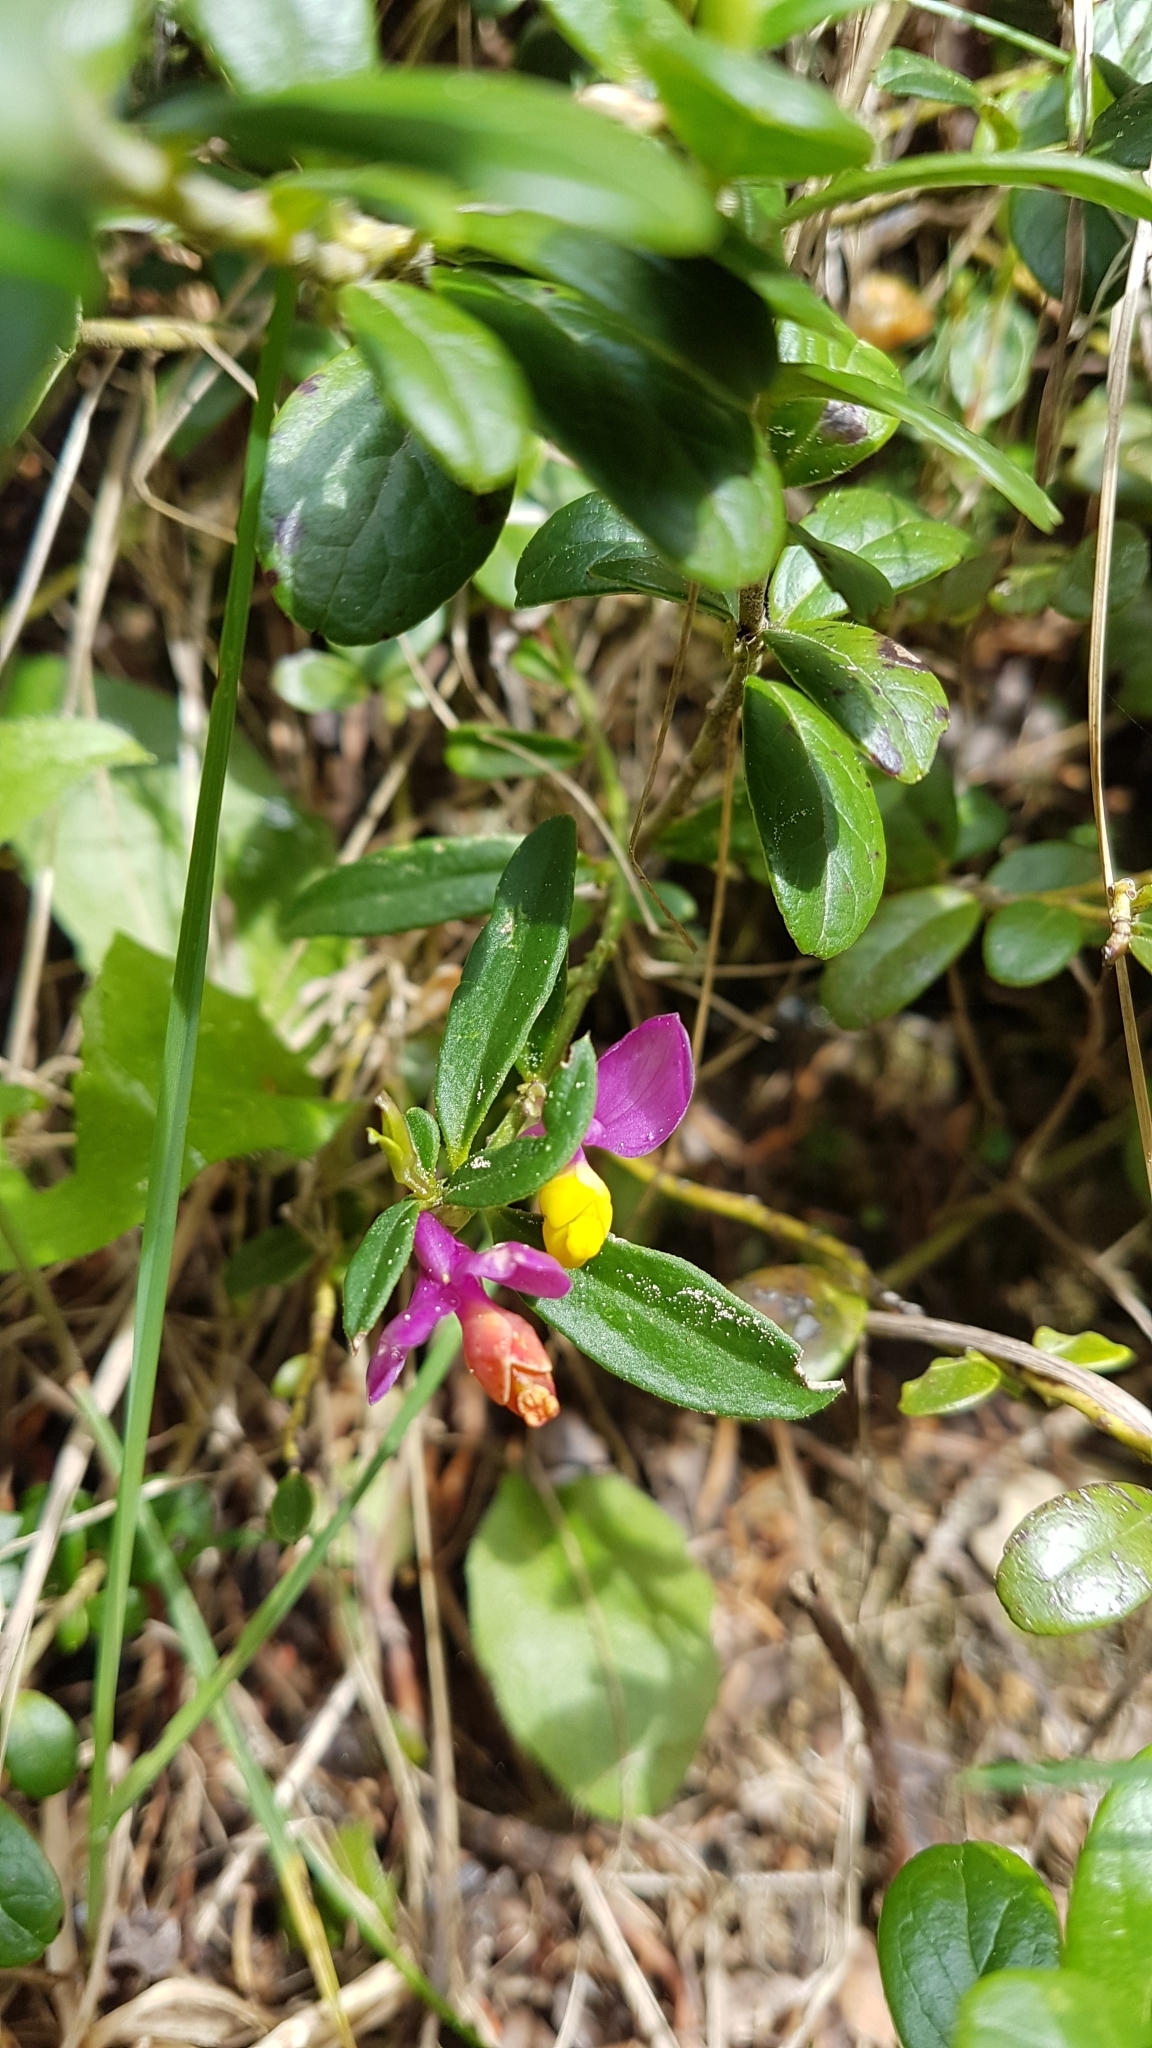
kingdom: Plantae
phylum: Tracheophyta
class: Magnoliopsida
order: Fabales
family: Polygalaceae
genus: Polygaloides
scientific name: Polygaloides chamaebuxus
